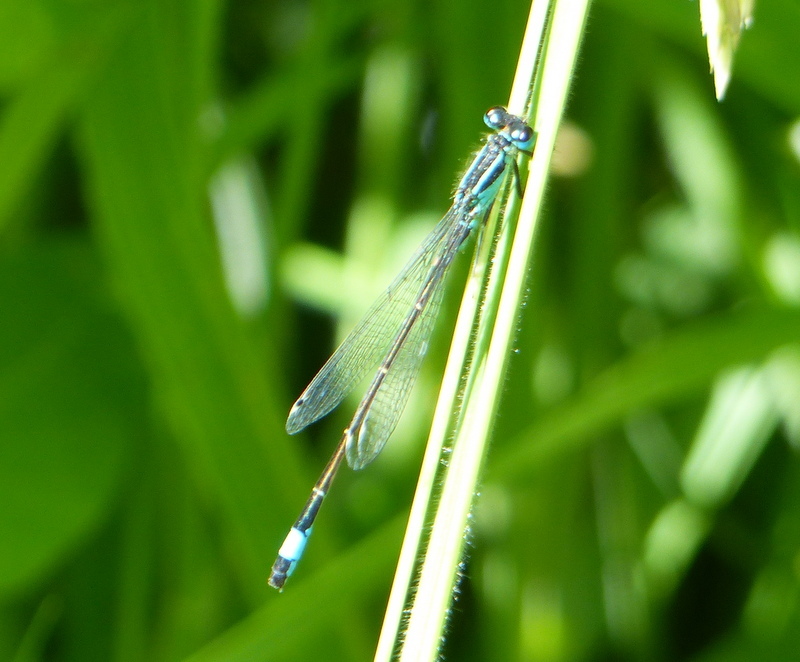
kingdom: Animalia
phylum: Arthropoda
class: Insecta
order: Odonata
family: Coenagrionidae
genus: Ischnura
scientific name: Ischnura elegans
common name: Blue-tailed damselfly
